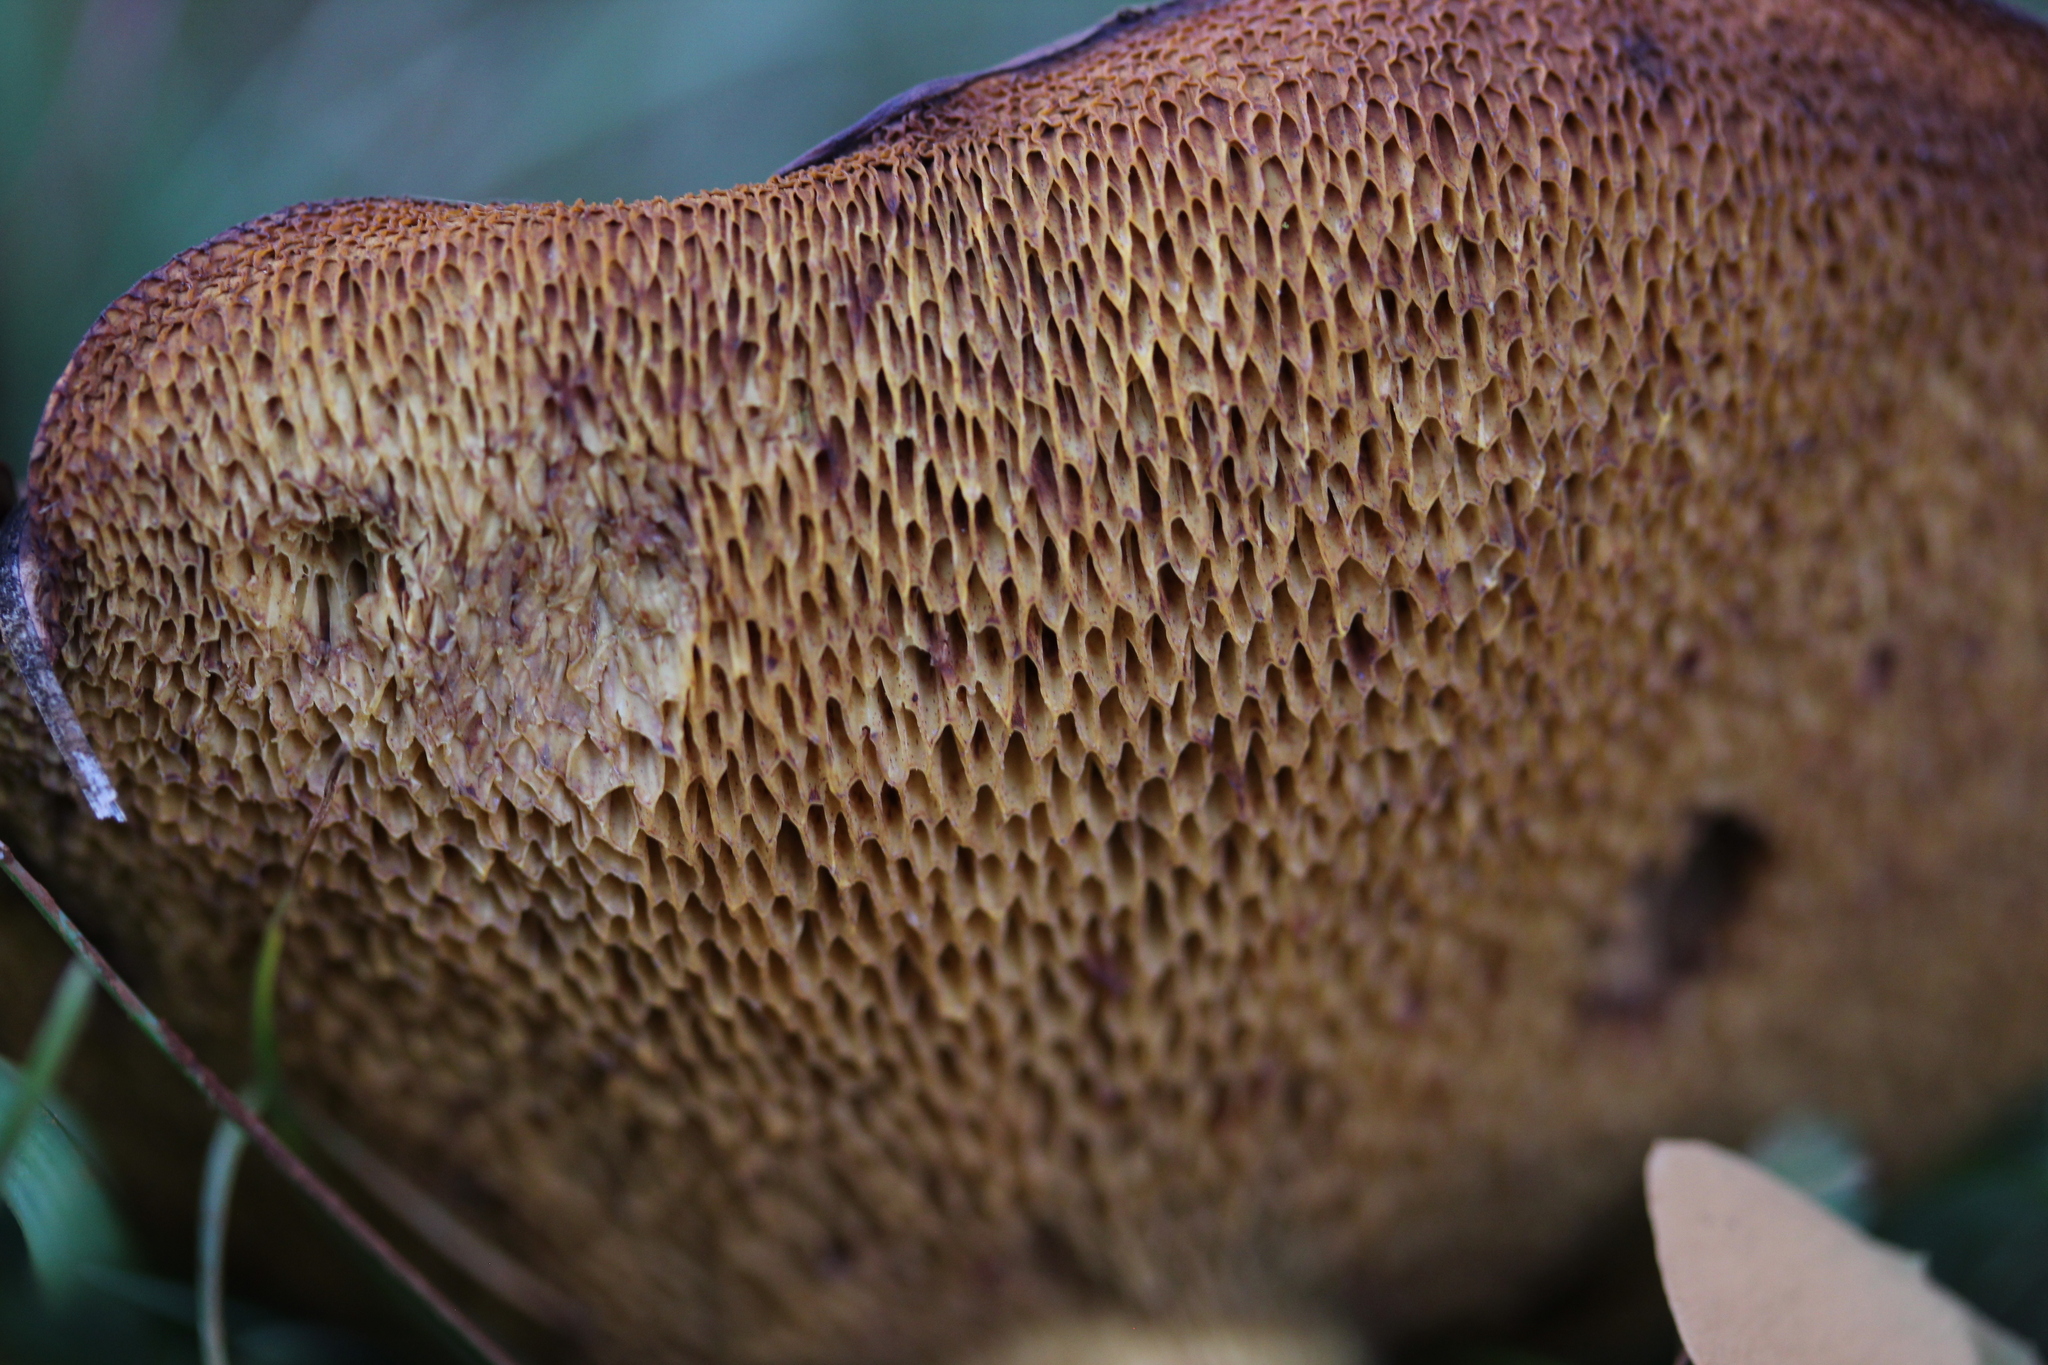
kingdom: Fungi
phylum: Basidiomycota
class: Agaricomycetes
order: Boletales
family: Suillaceae
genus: Suillus
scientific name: Suillus collinitus
